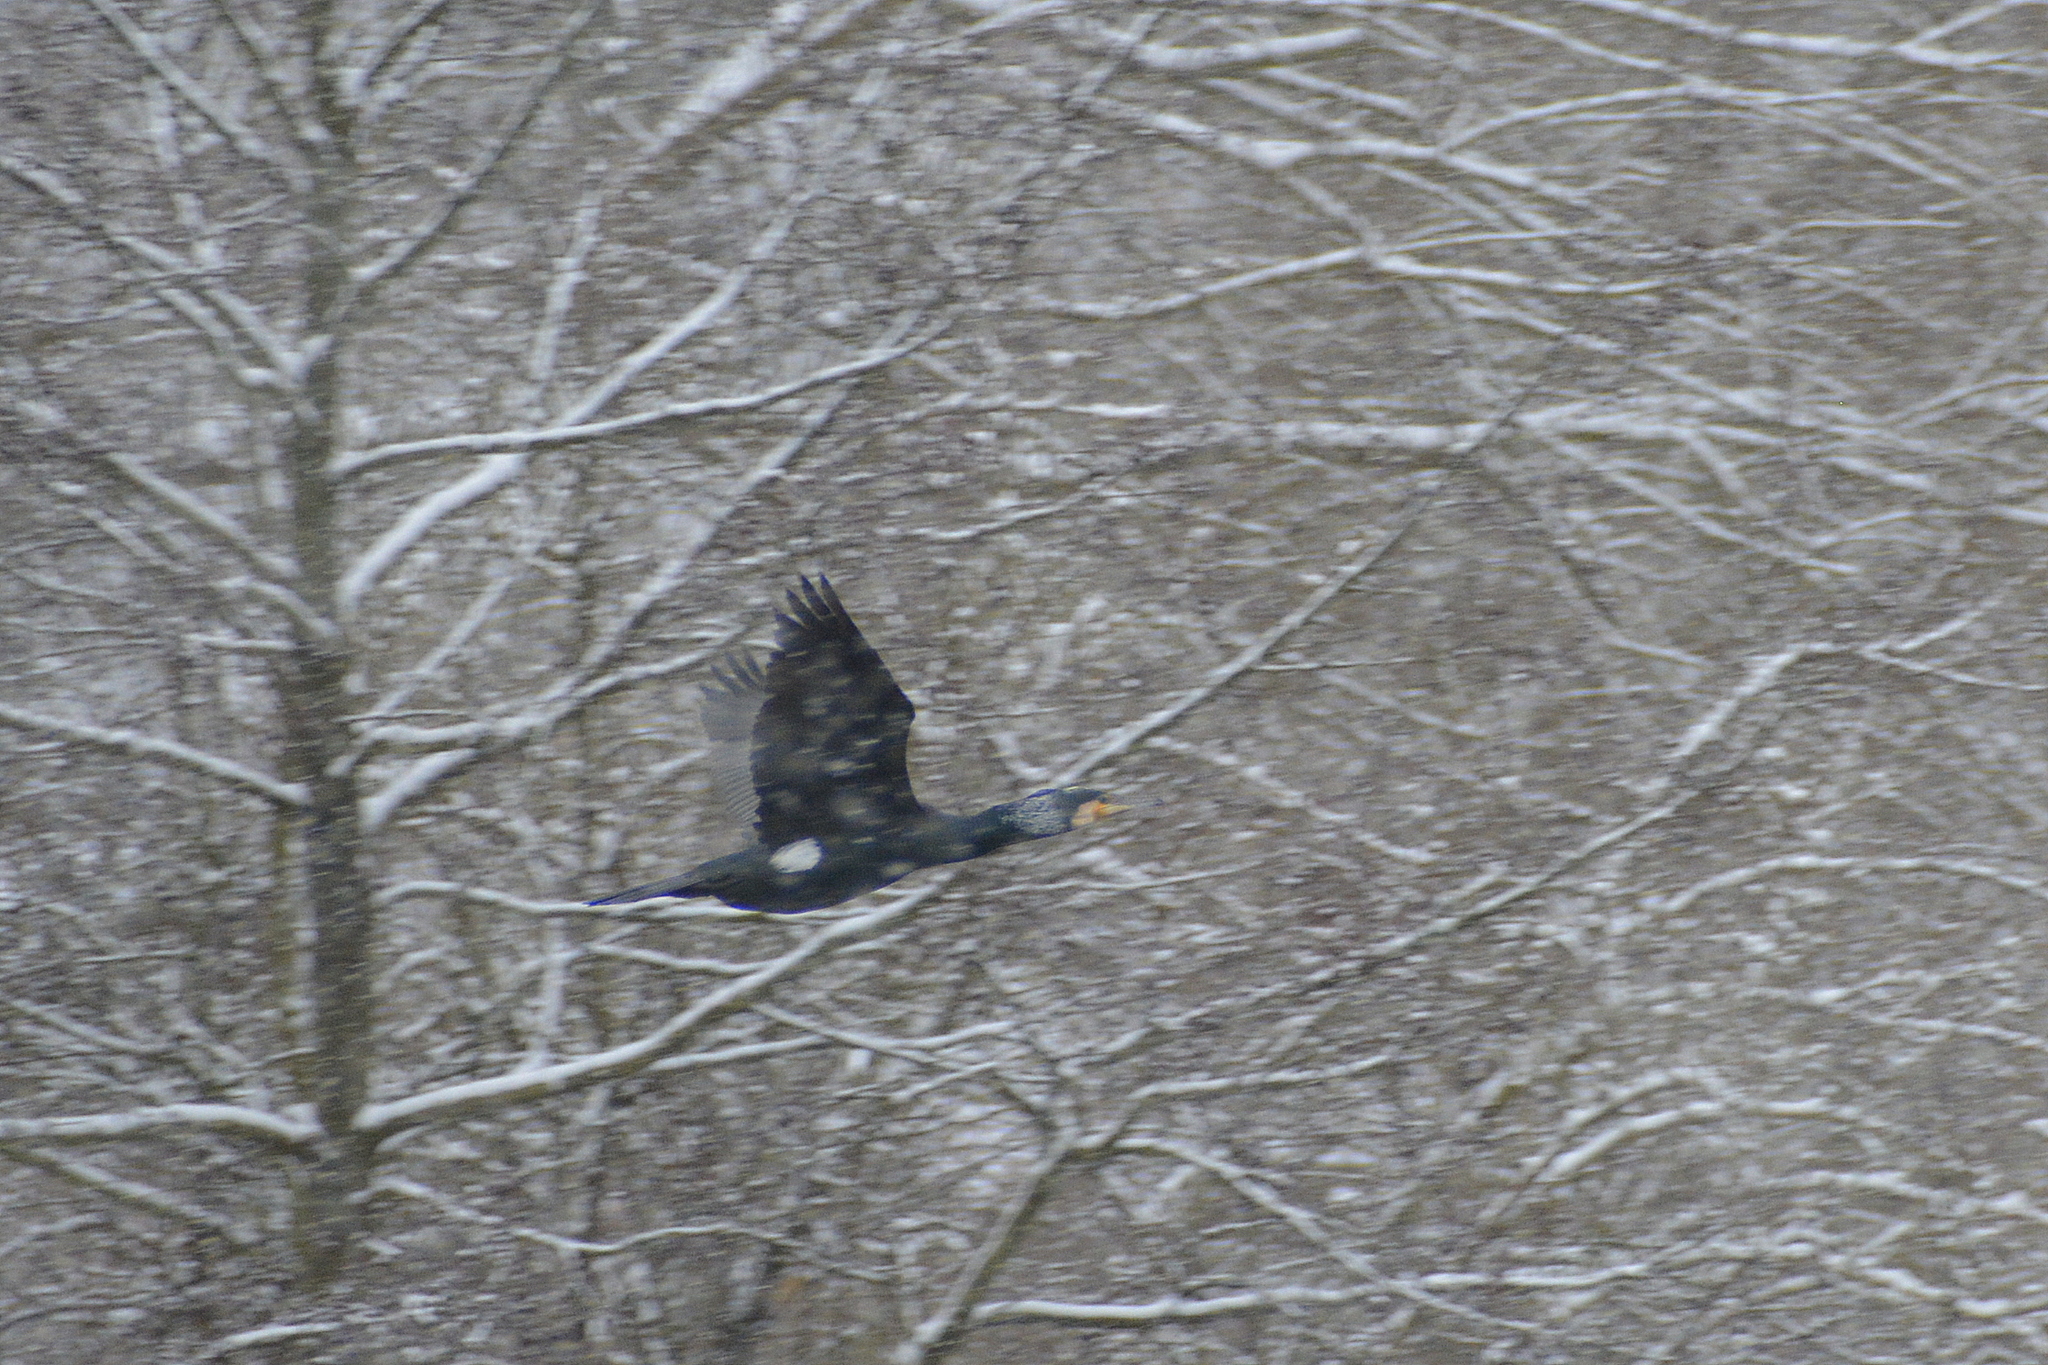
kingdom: Animalia
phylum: Chordata
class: Aves
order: Suliformes
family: Phalacrocoracidae
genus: Phalacrocorax
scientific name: Phalacrocorax carbo
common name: Great cormorant
